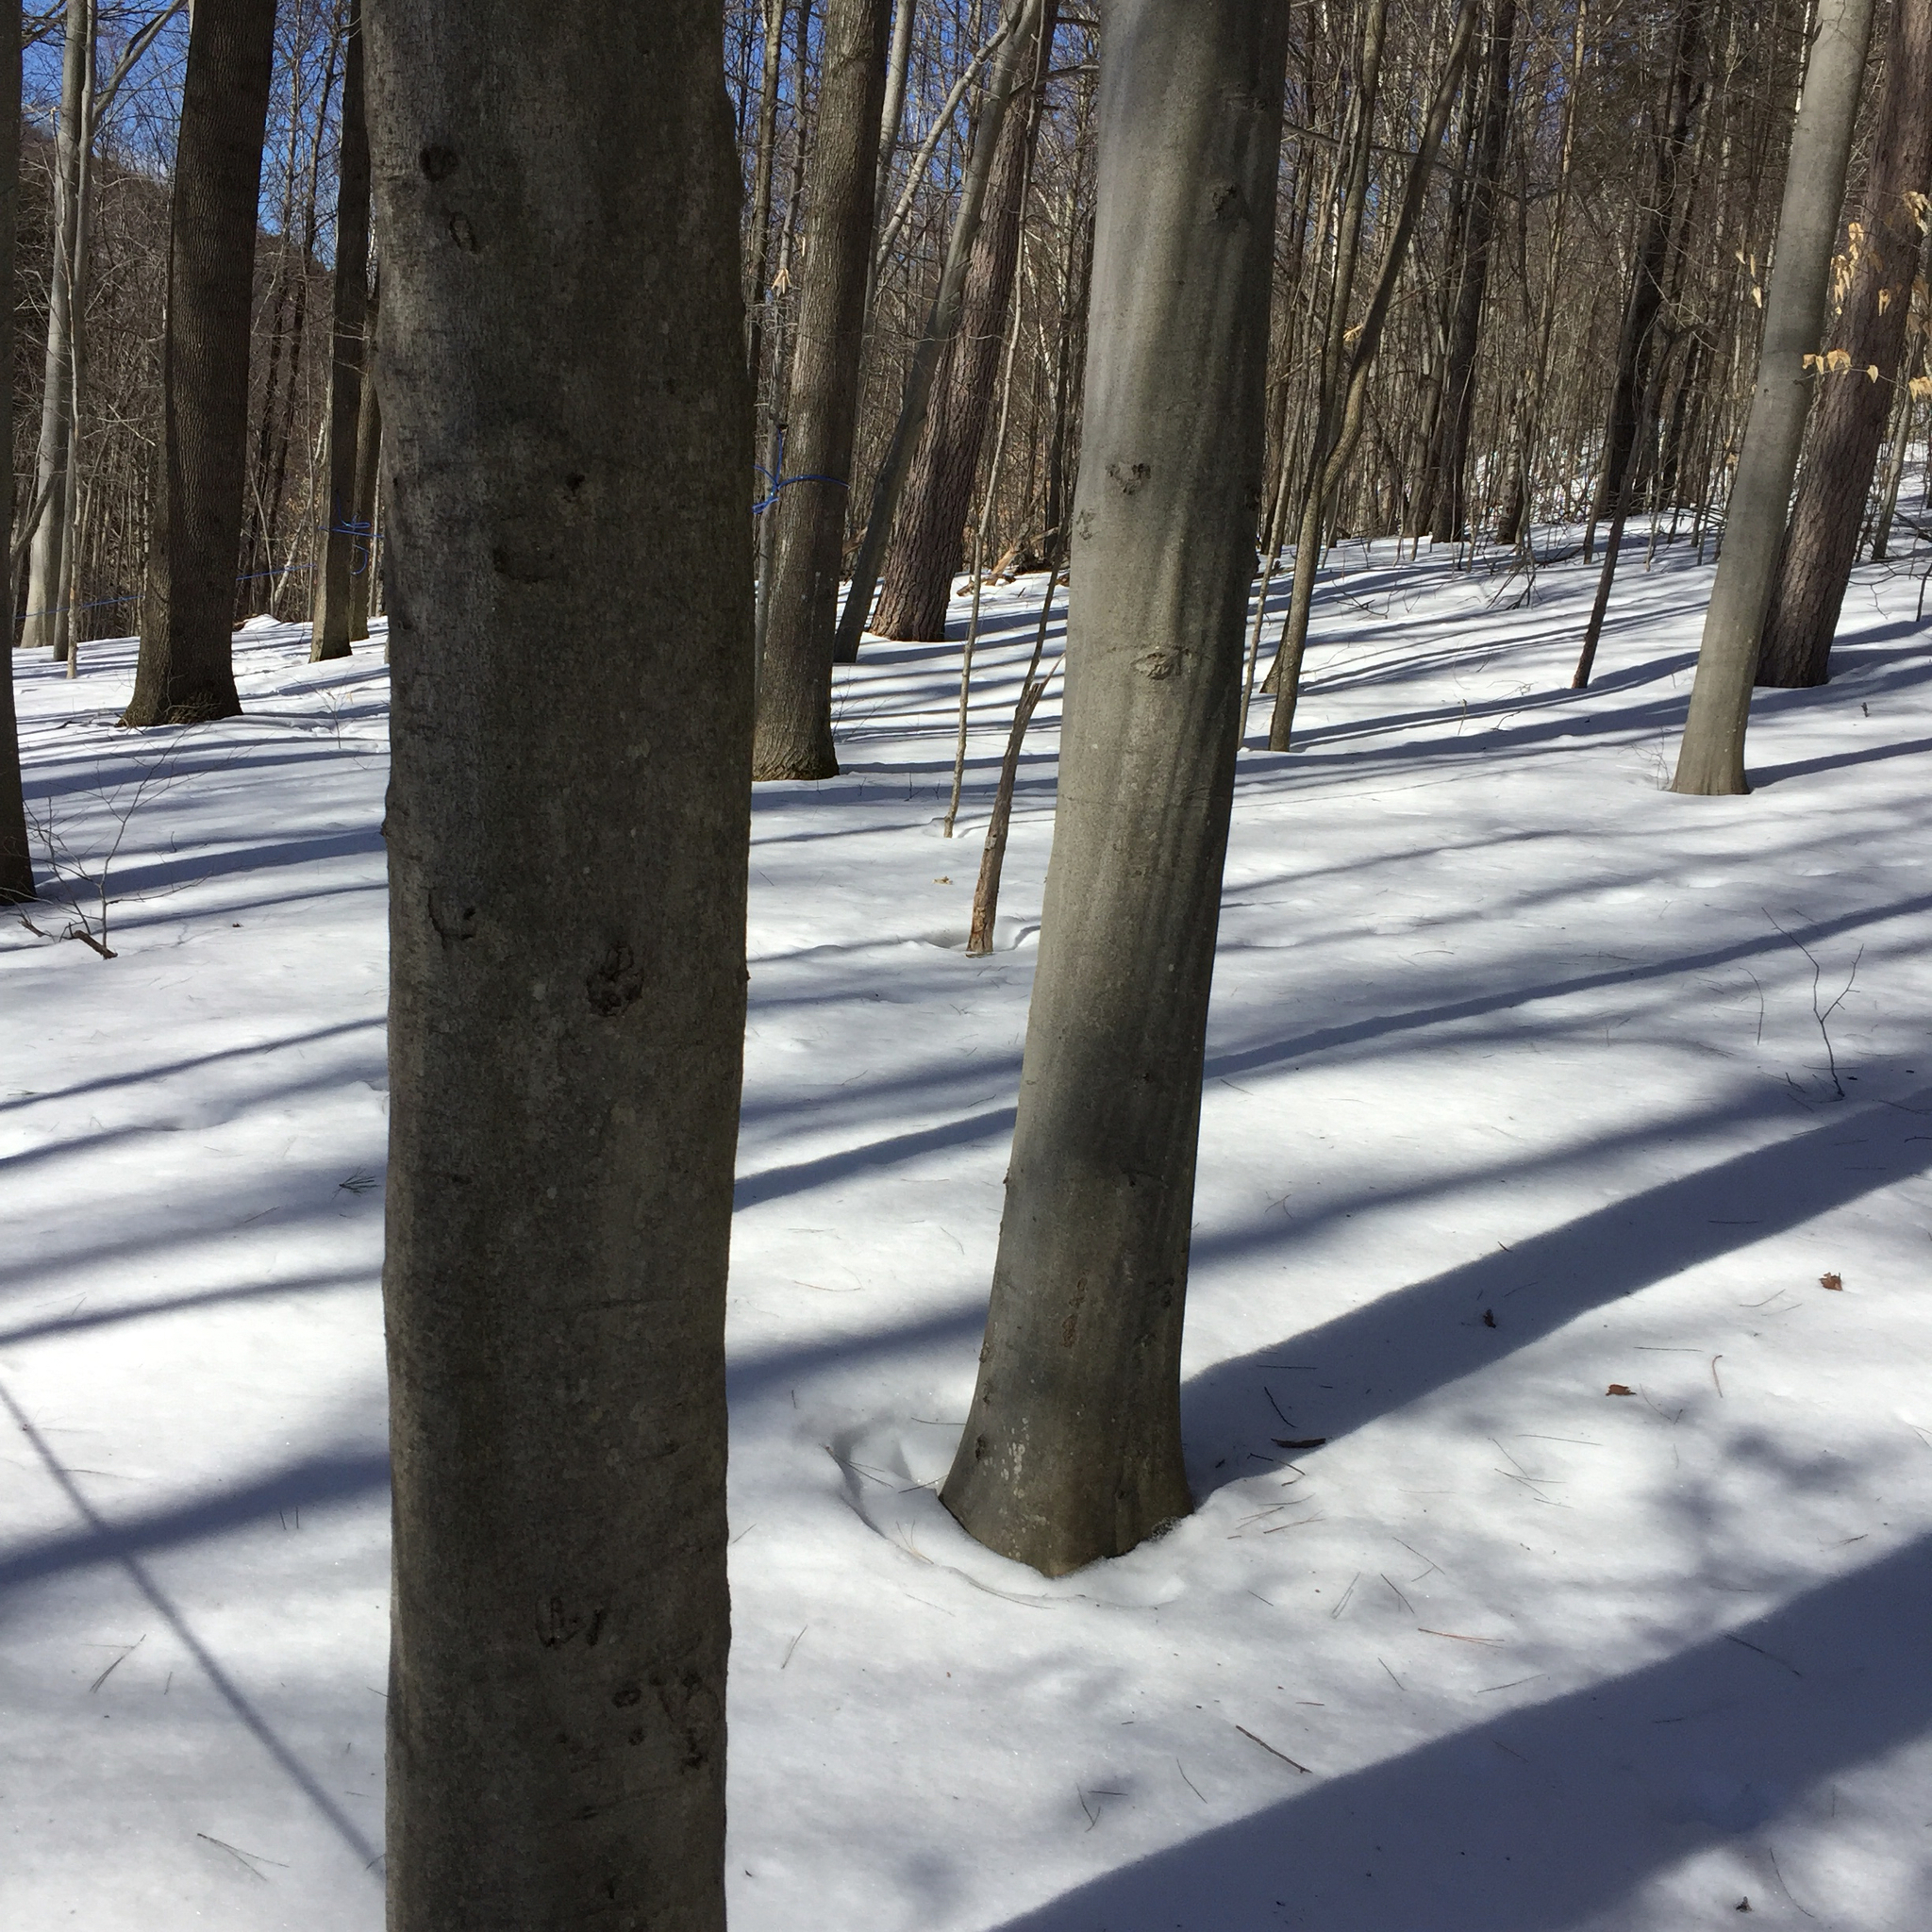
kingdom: Plantae
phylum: Tracheophyta
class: Magnoliopsida
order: Fagales
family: Fagaceae
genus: Fagus
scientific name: Fagus grandifolia
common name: American beech
